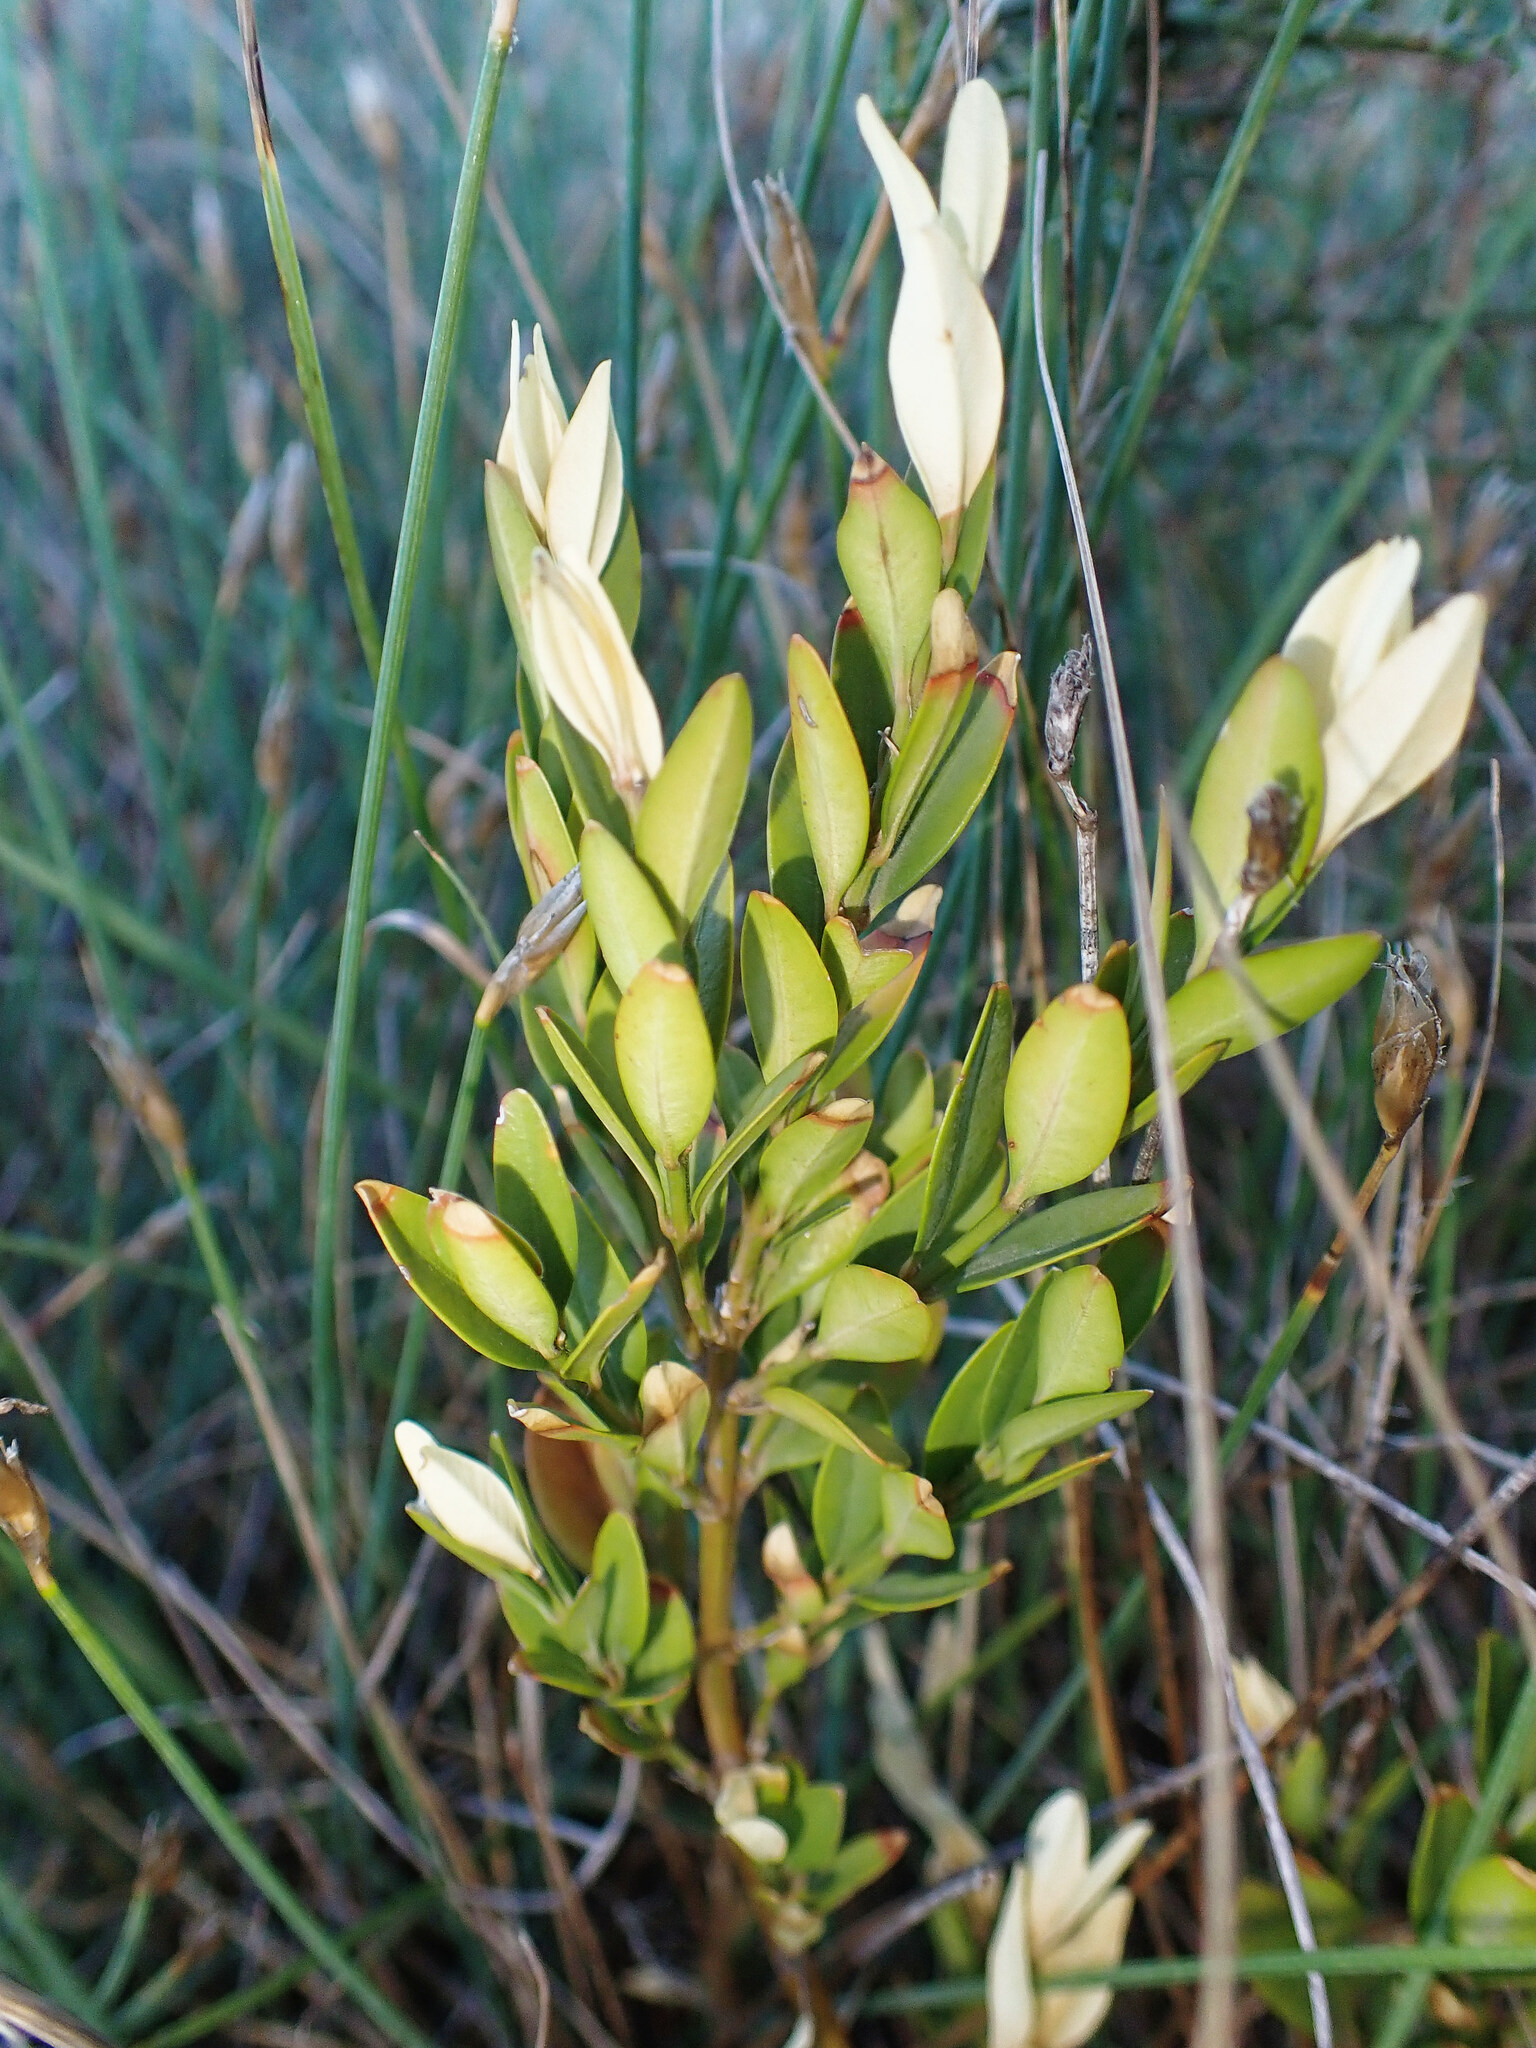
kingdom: Plantae
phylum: Tracheophyta
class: Magnoliopsida
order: Buxales
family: Buxaceae
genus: Buxus
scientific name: Buxus sempervirens
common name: Box
